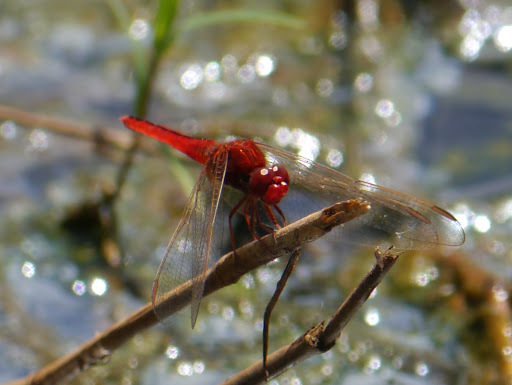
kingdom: Animalia
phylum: Arthropoda
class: Insecta
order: Odonata
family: Libellulidae
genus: Crocothemis
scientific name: Crocothemis servilia
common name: Scarlet skimmer
